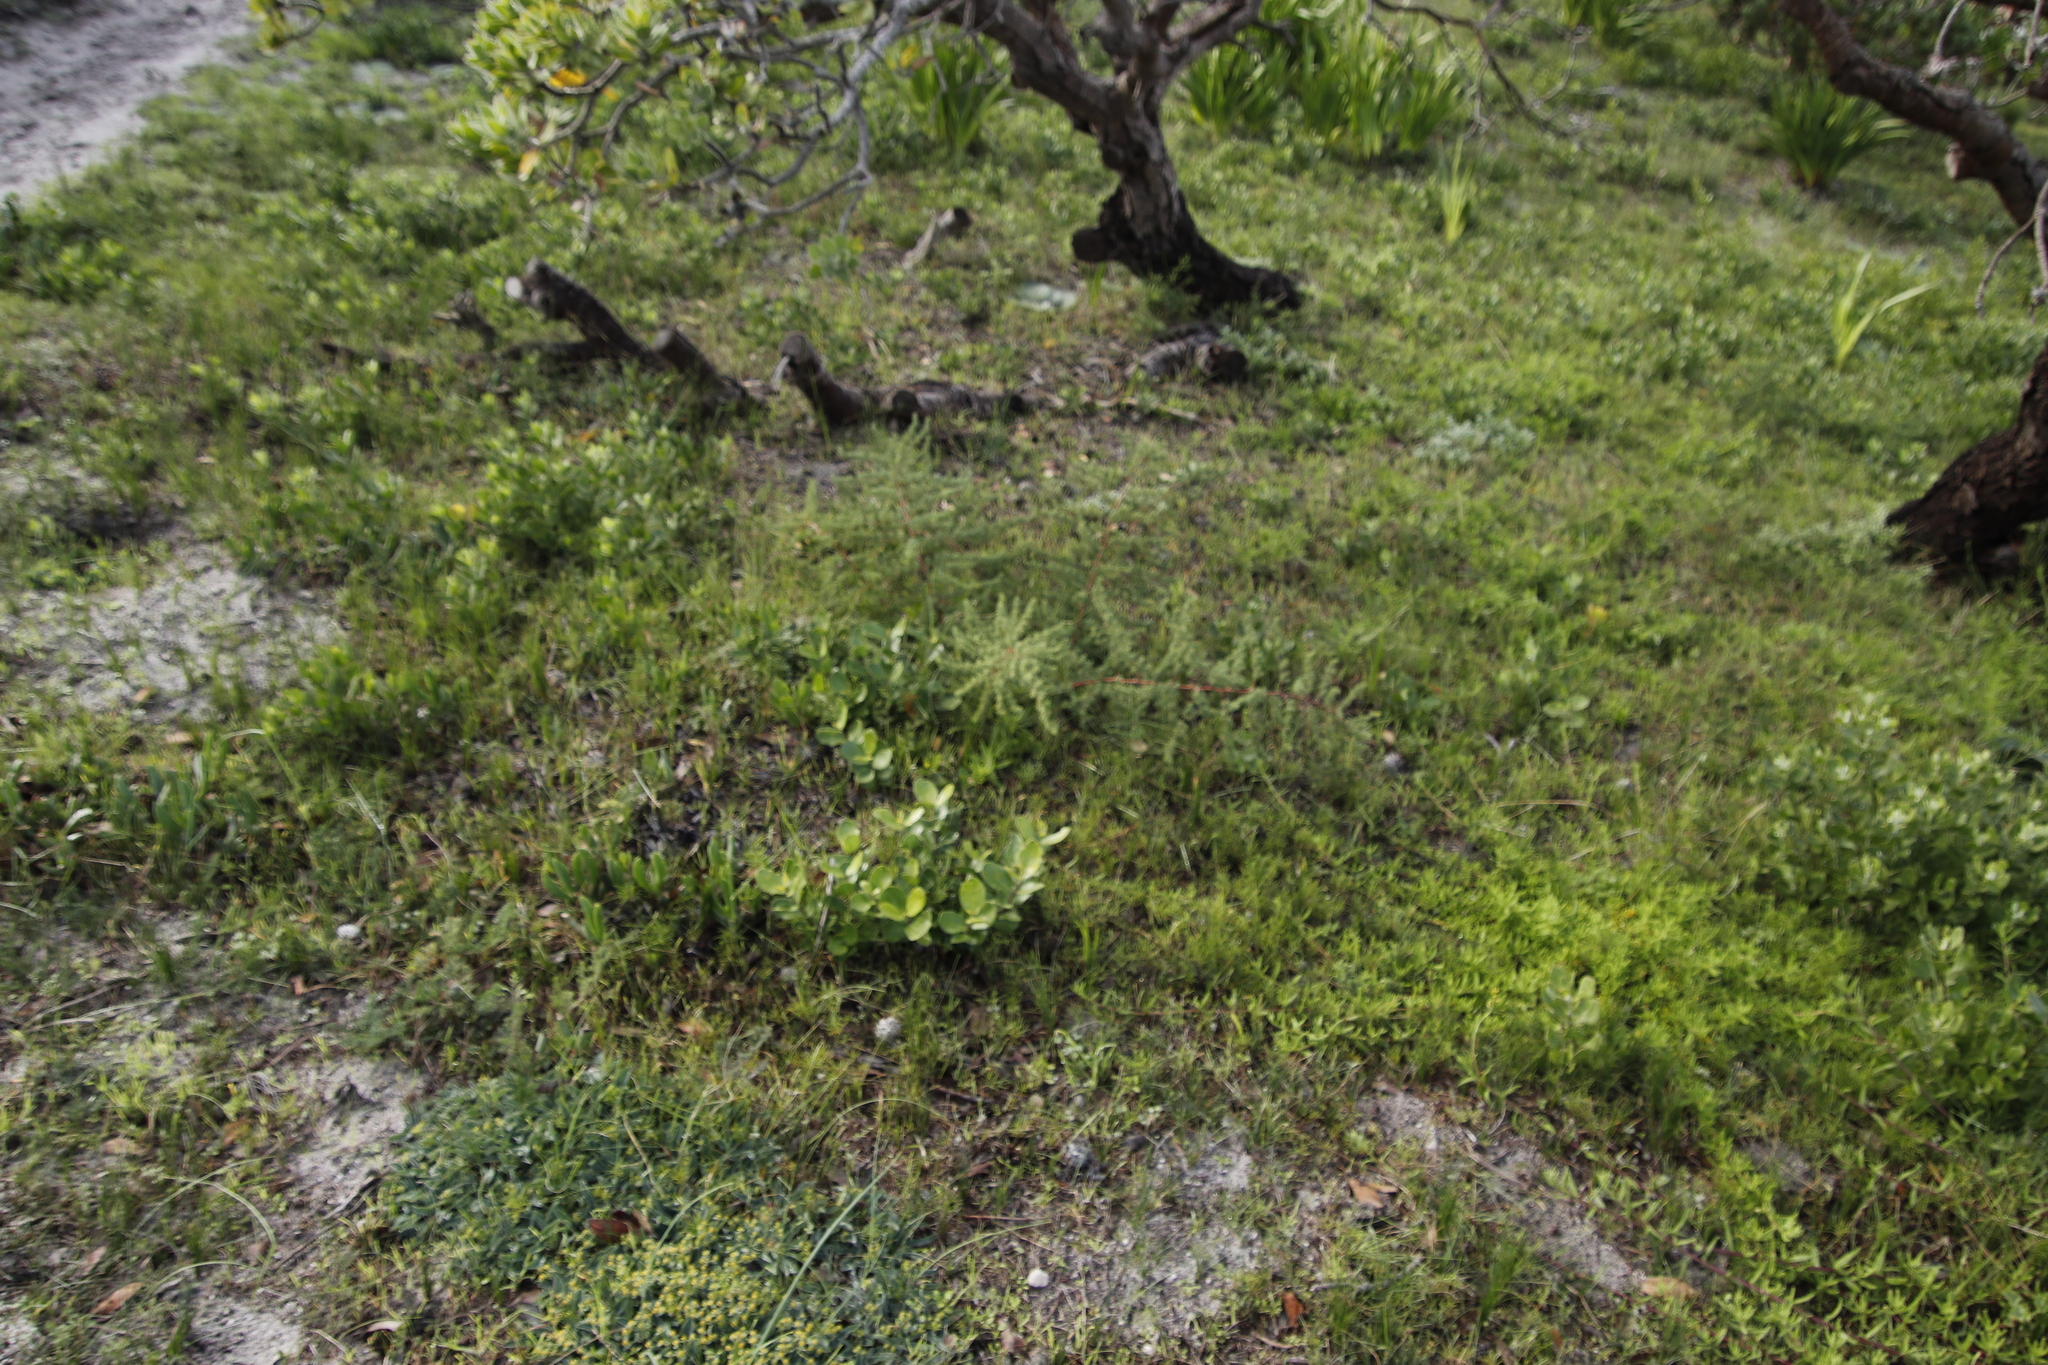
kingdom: Plantae
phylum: Tracheophyta
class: Liliopsida
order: Asparagales
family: Asparagaceae
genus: Asparagus
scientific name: Asparagus rubicundus
